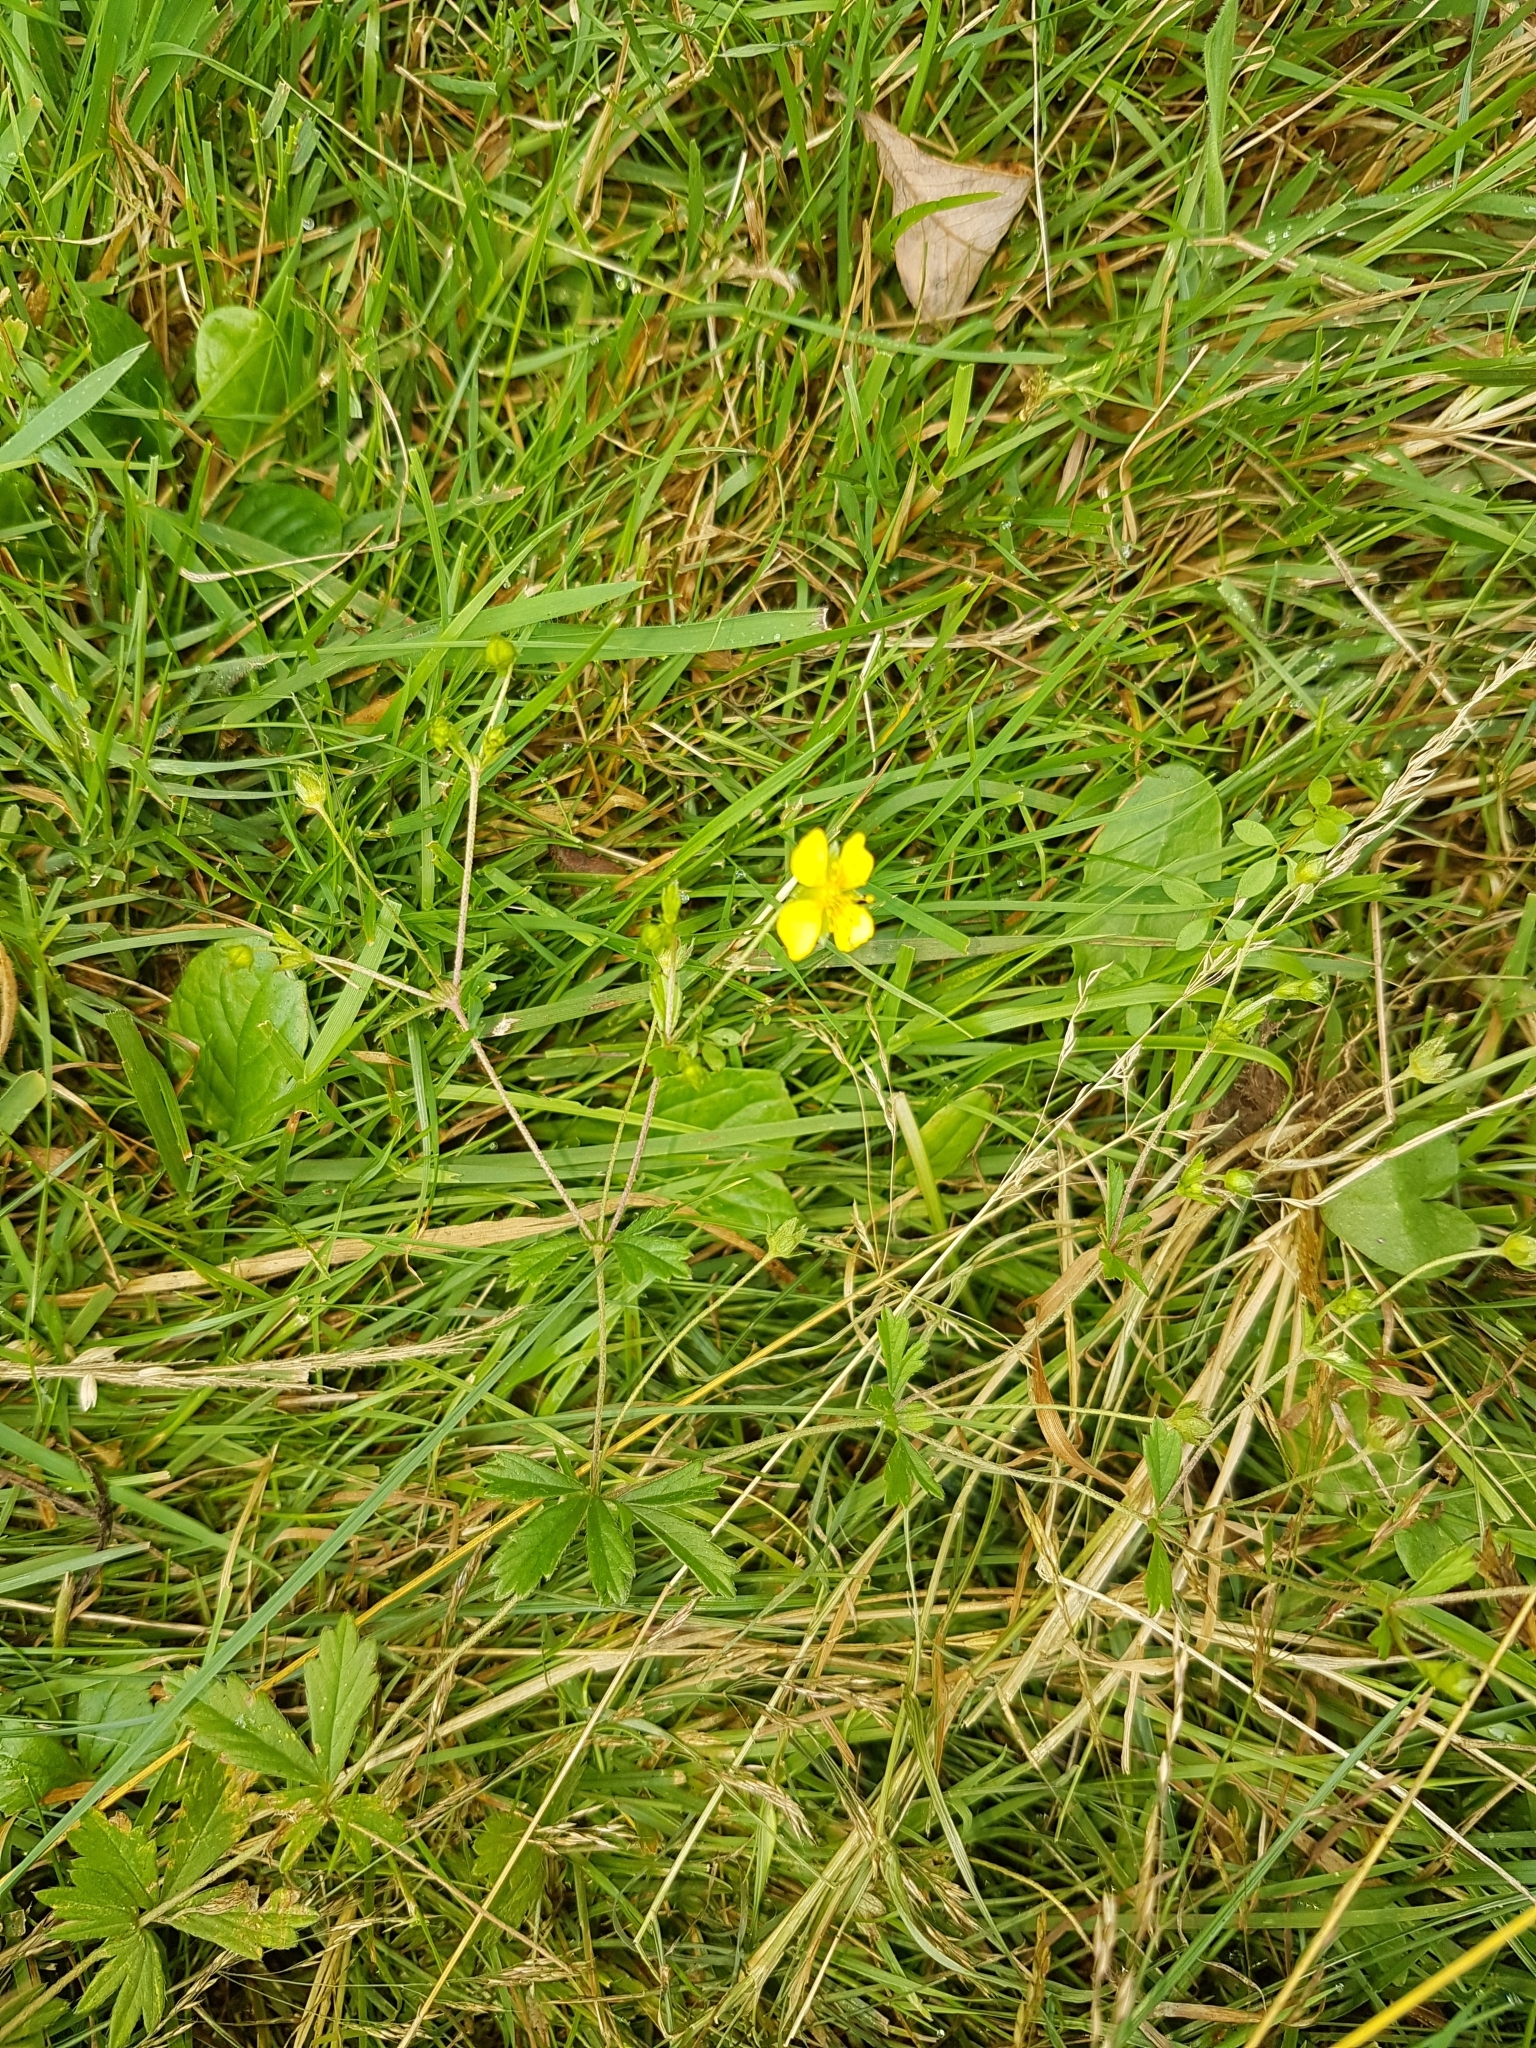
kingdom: Plantae
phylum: Tracheophyta
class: Magnoliopsida
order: Rosales
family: Rosaceae
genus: Potentilla
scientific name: Potentilla erecta
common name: Tormentil
